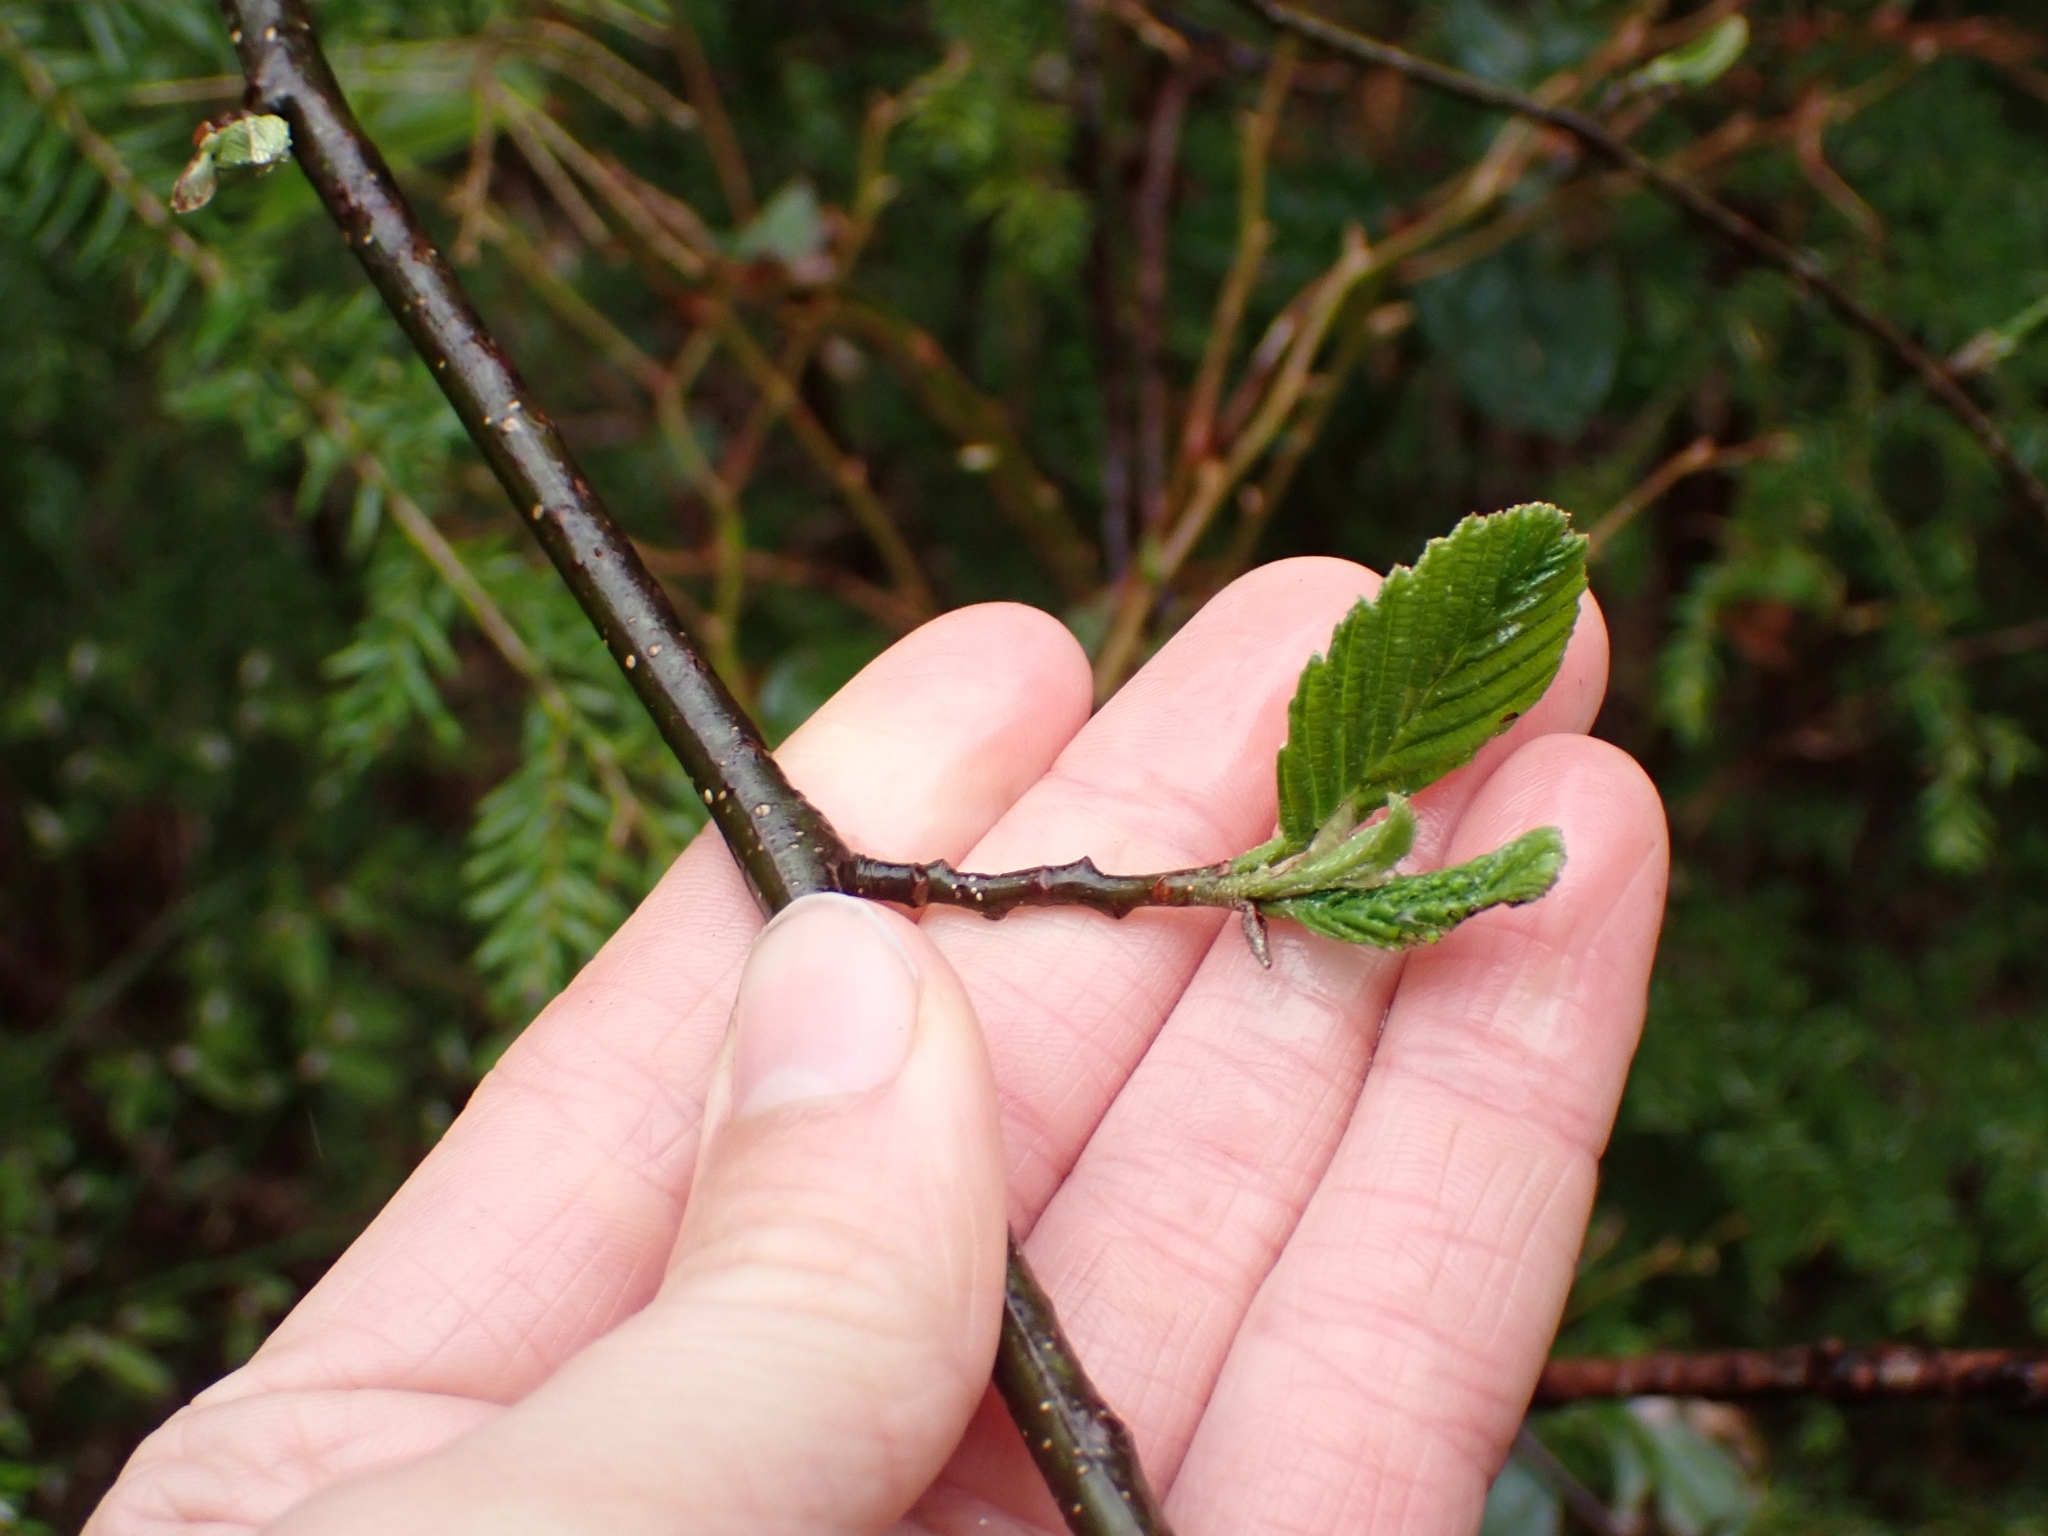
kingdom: Plantae
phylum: Tracheophyta
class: Magnoliopsida
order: Fagales
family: Betulaceae
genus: Alnus
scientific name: Alnus rubra
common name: Red alder
